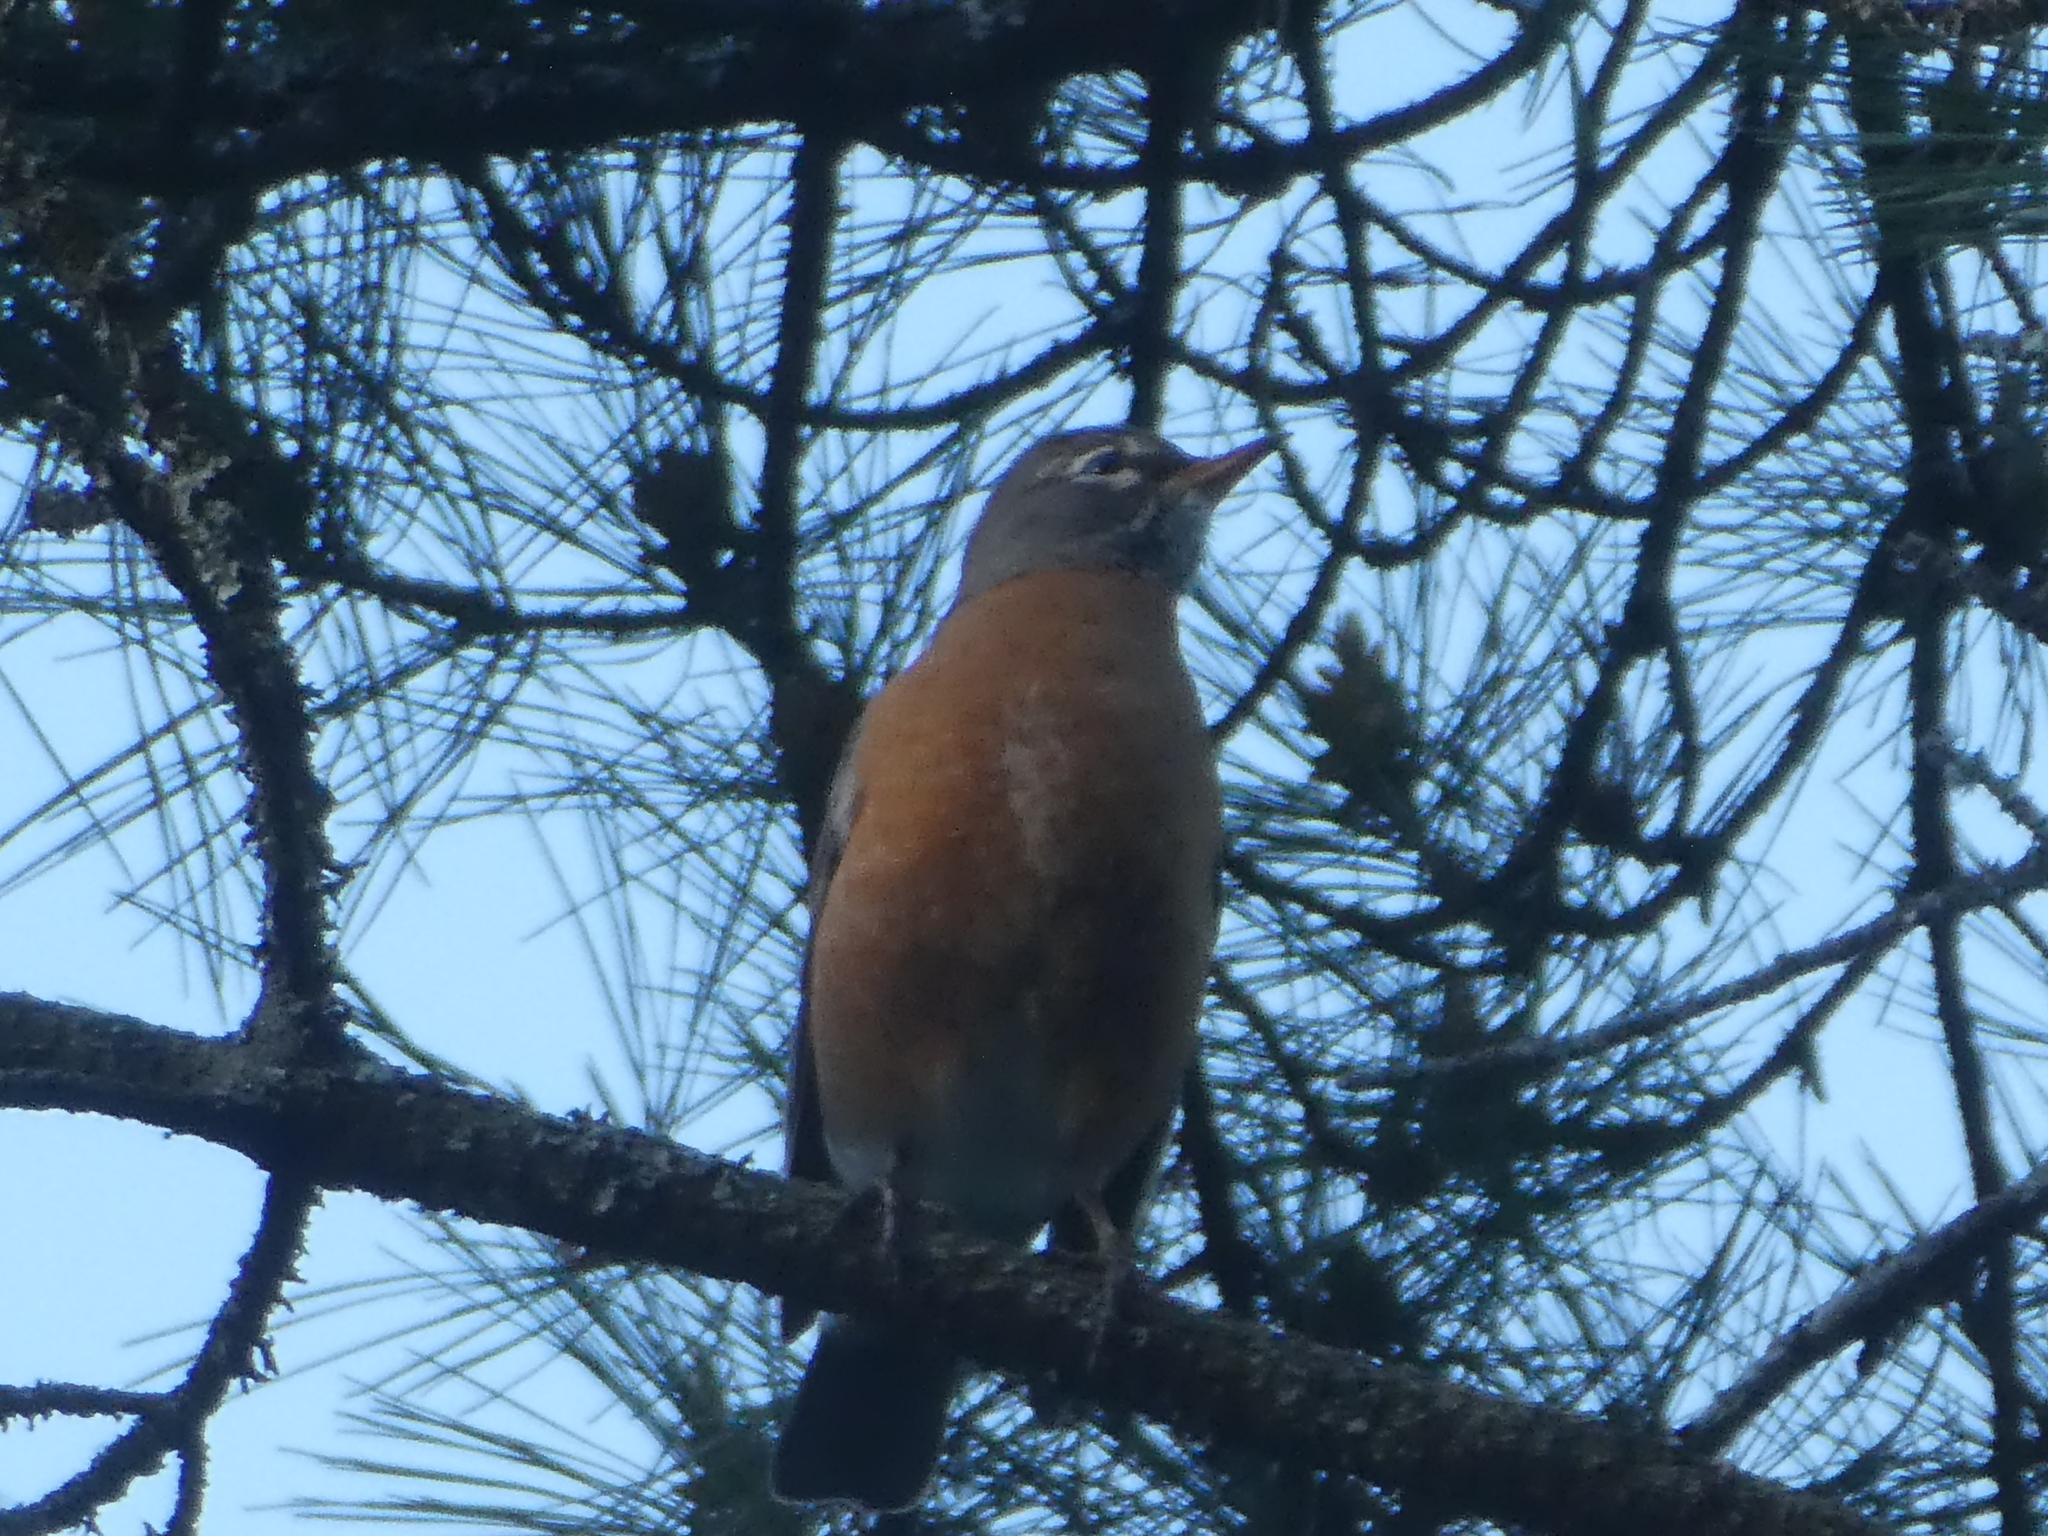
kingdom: Animalia
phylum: Chordata
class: Aves
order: Passeriformes
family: Turdidae
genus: Turdus
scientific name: Turdus migratorius
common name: American robin
